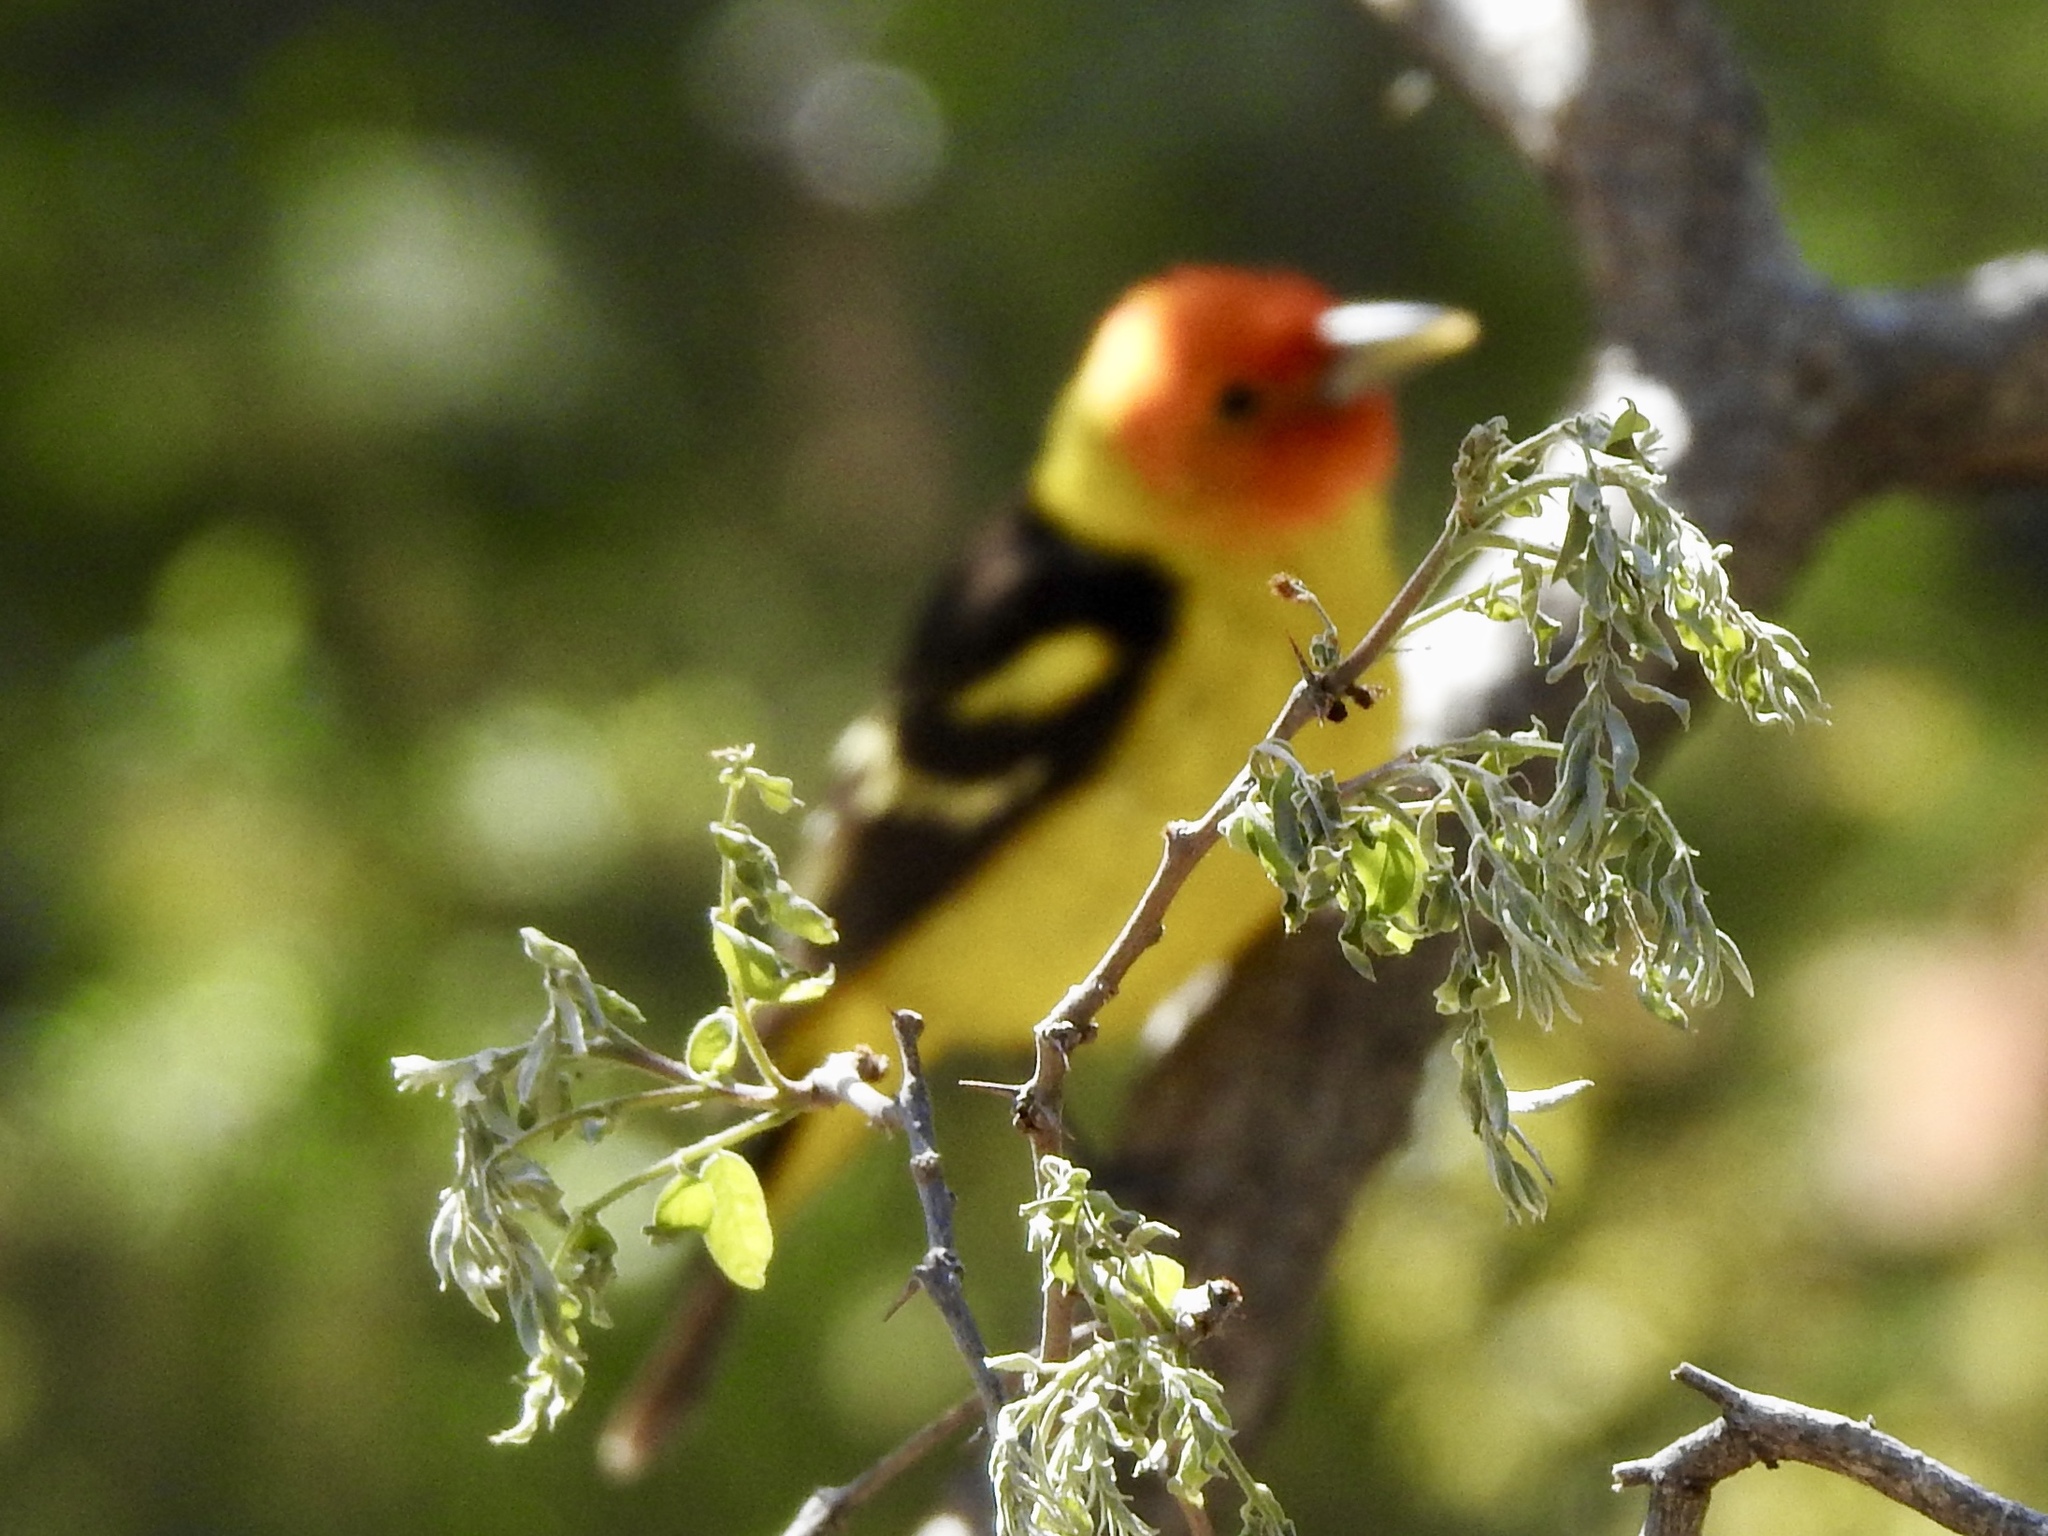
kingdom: Animalia
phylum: Chordata
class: Aves
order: Passeriformes
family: Cardinalidae
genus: Piranga
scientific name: Piranga ludoviciana
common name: Western tanager
